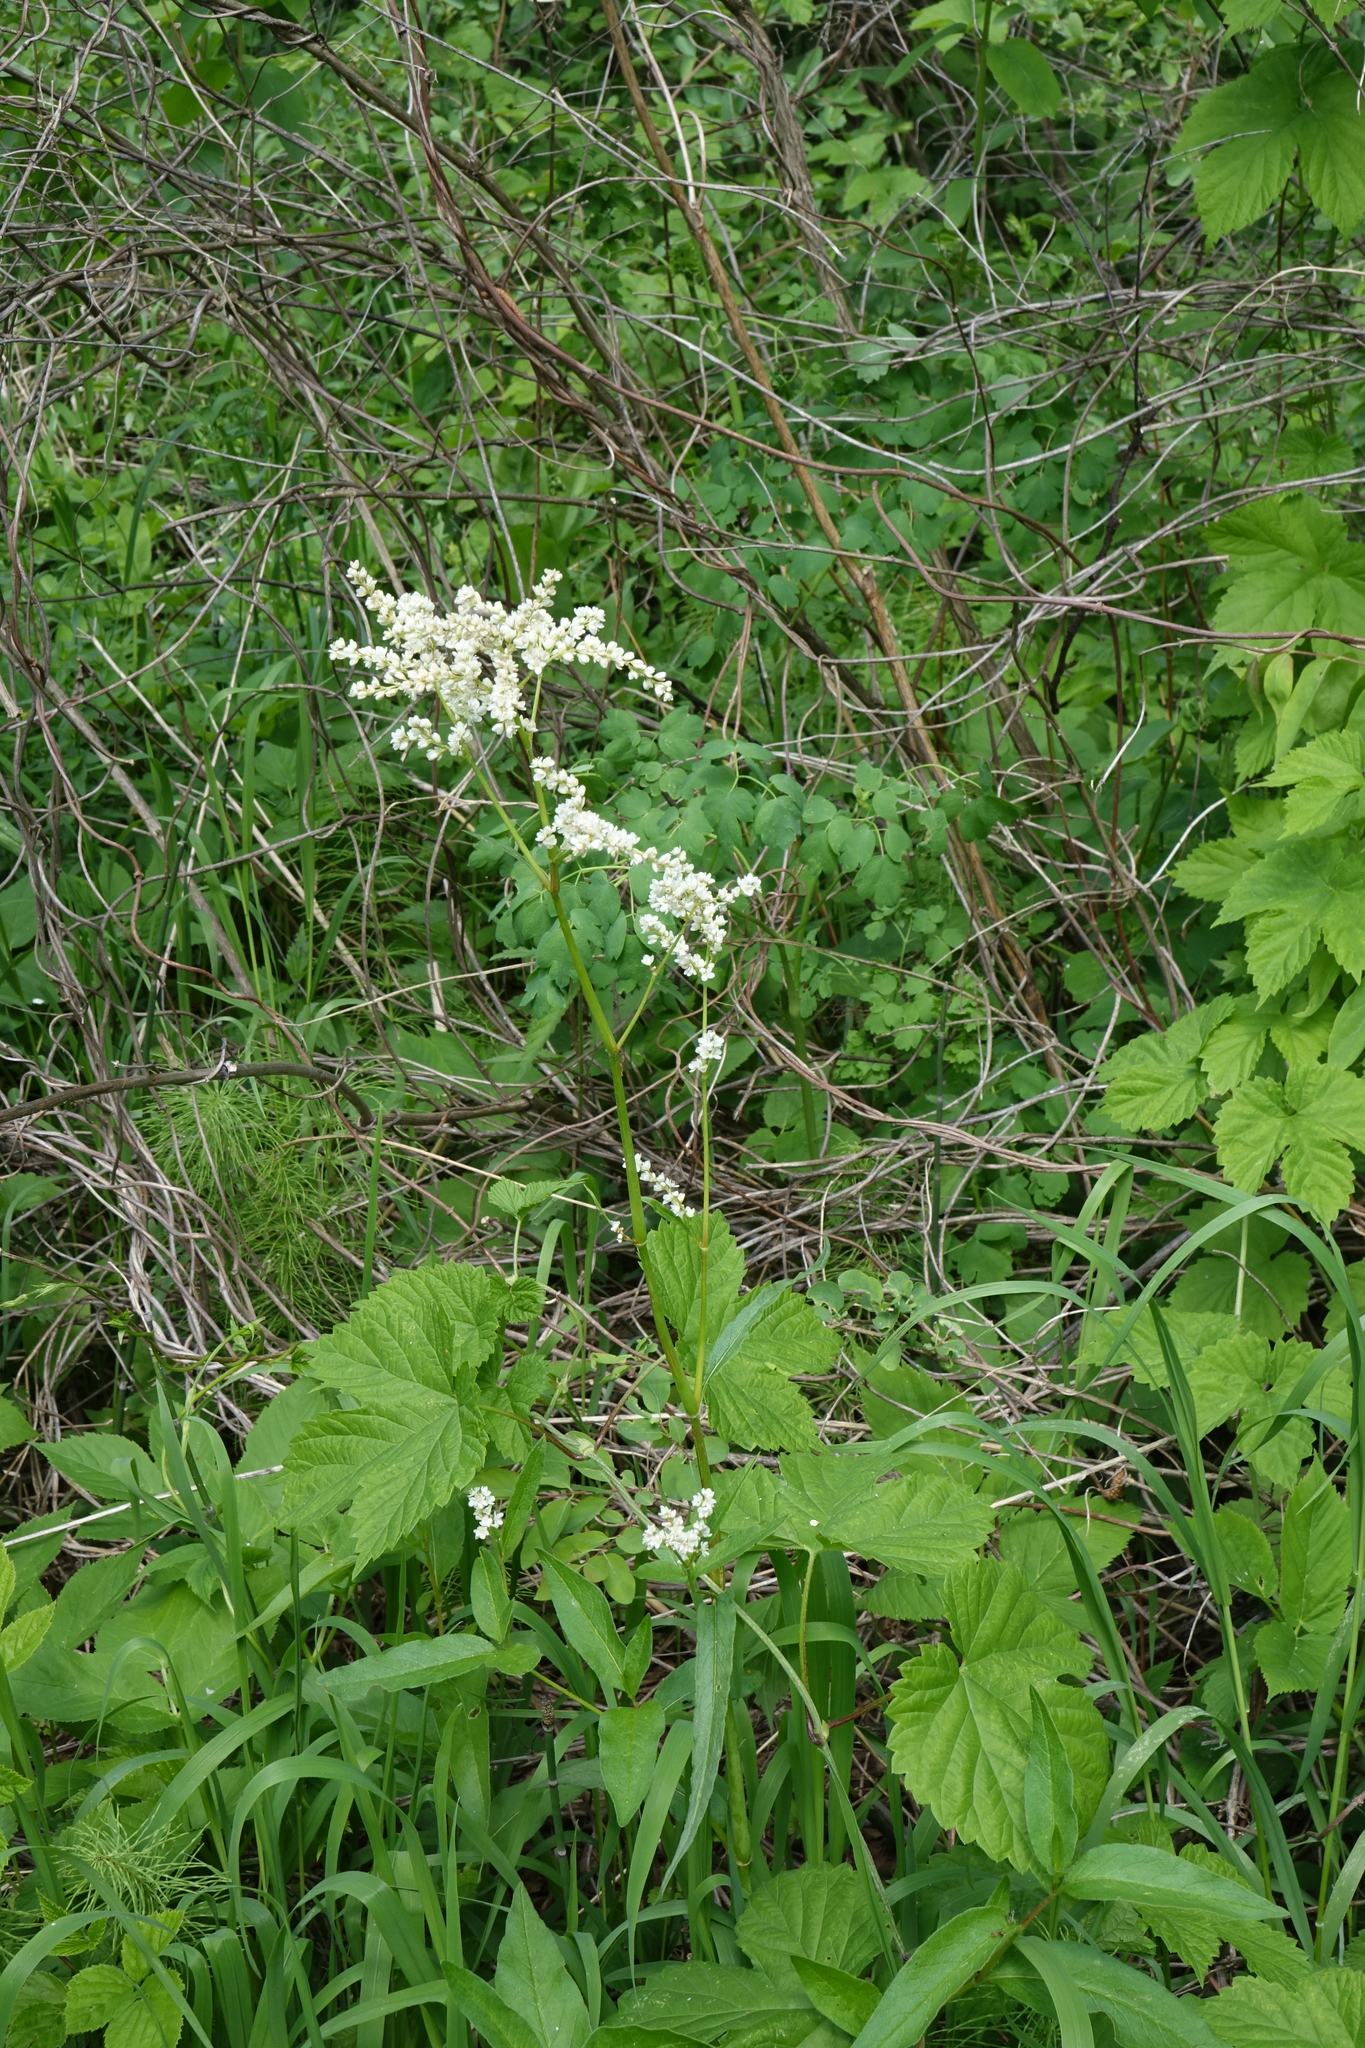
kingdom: Plantae
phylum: Tracheophyta
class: Magnoliopsida
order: Caryophyllales
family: Polygonaceae
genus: Koenigia
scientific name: Koenigia alpina
